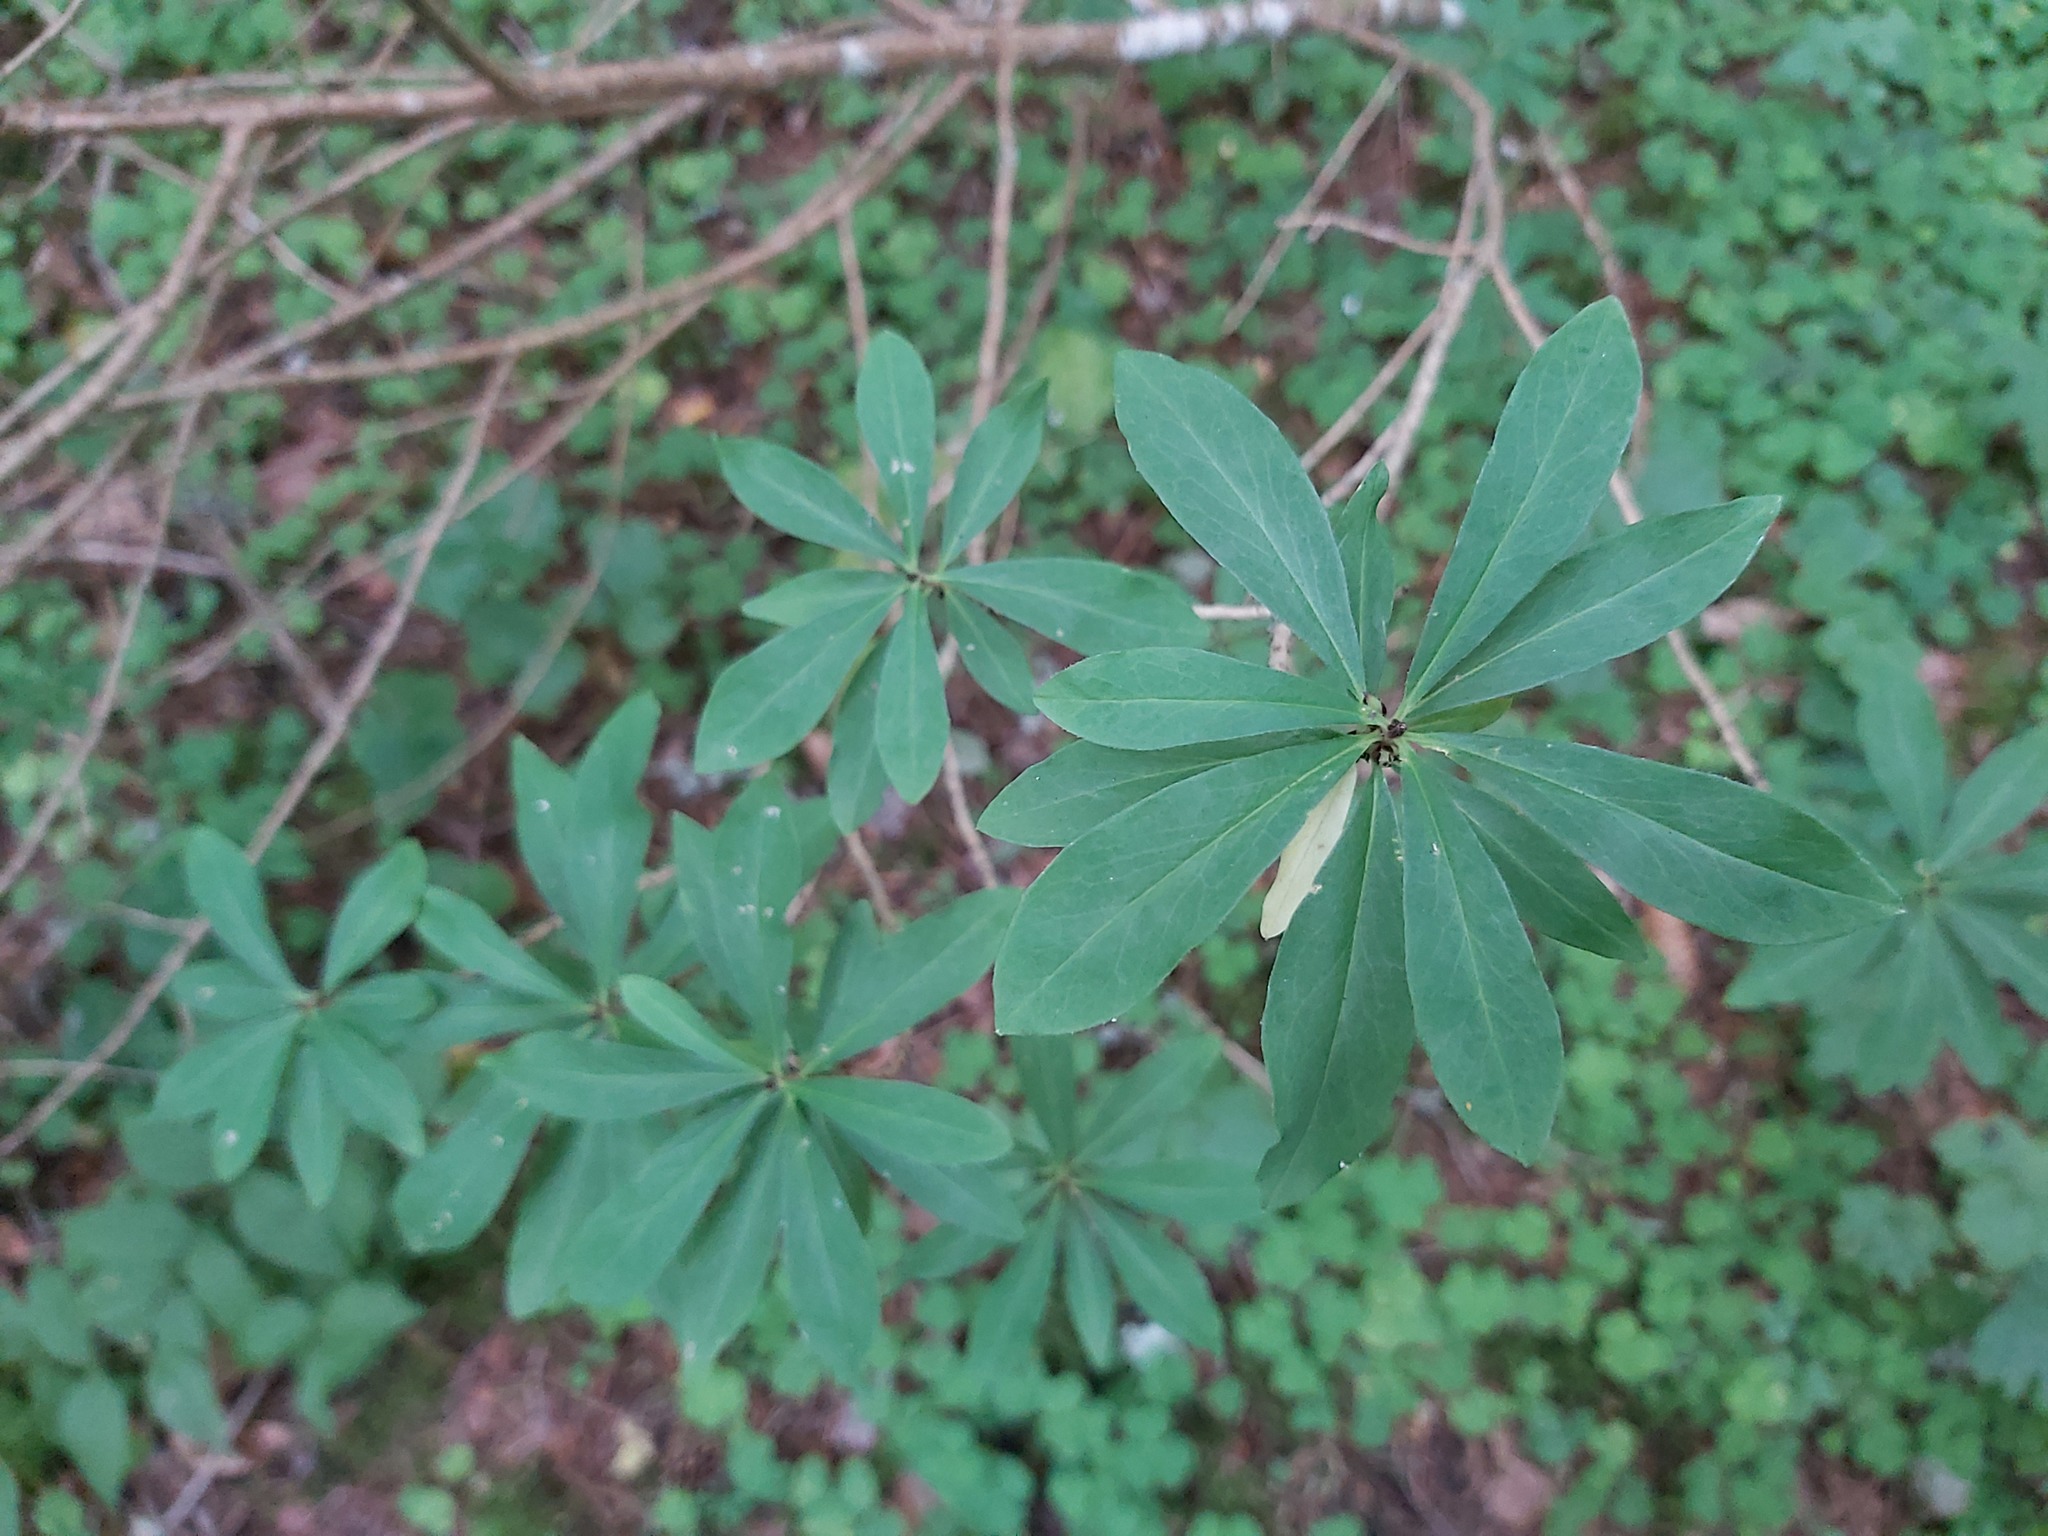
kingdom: Plantae
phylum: Tracheophyta
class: Magnoliopsida
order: Malvales
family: Thymelaeaceae
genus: Daphne
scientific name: Daphne mezereum
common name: Mezereon
